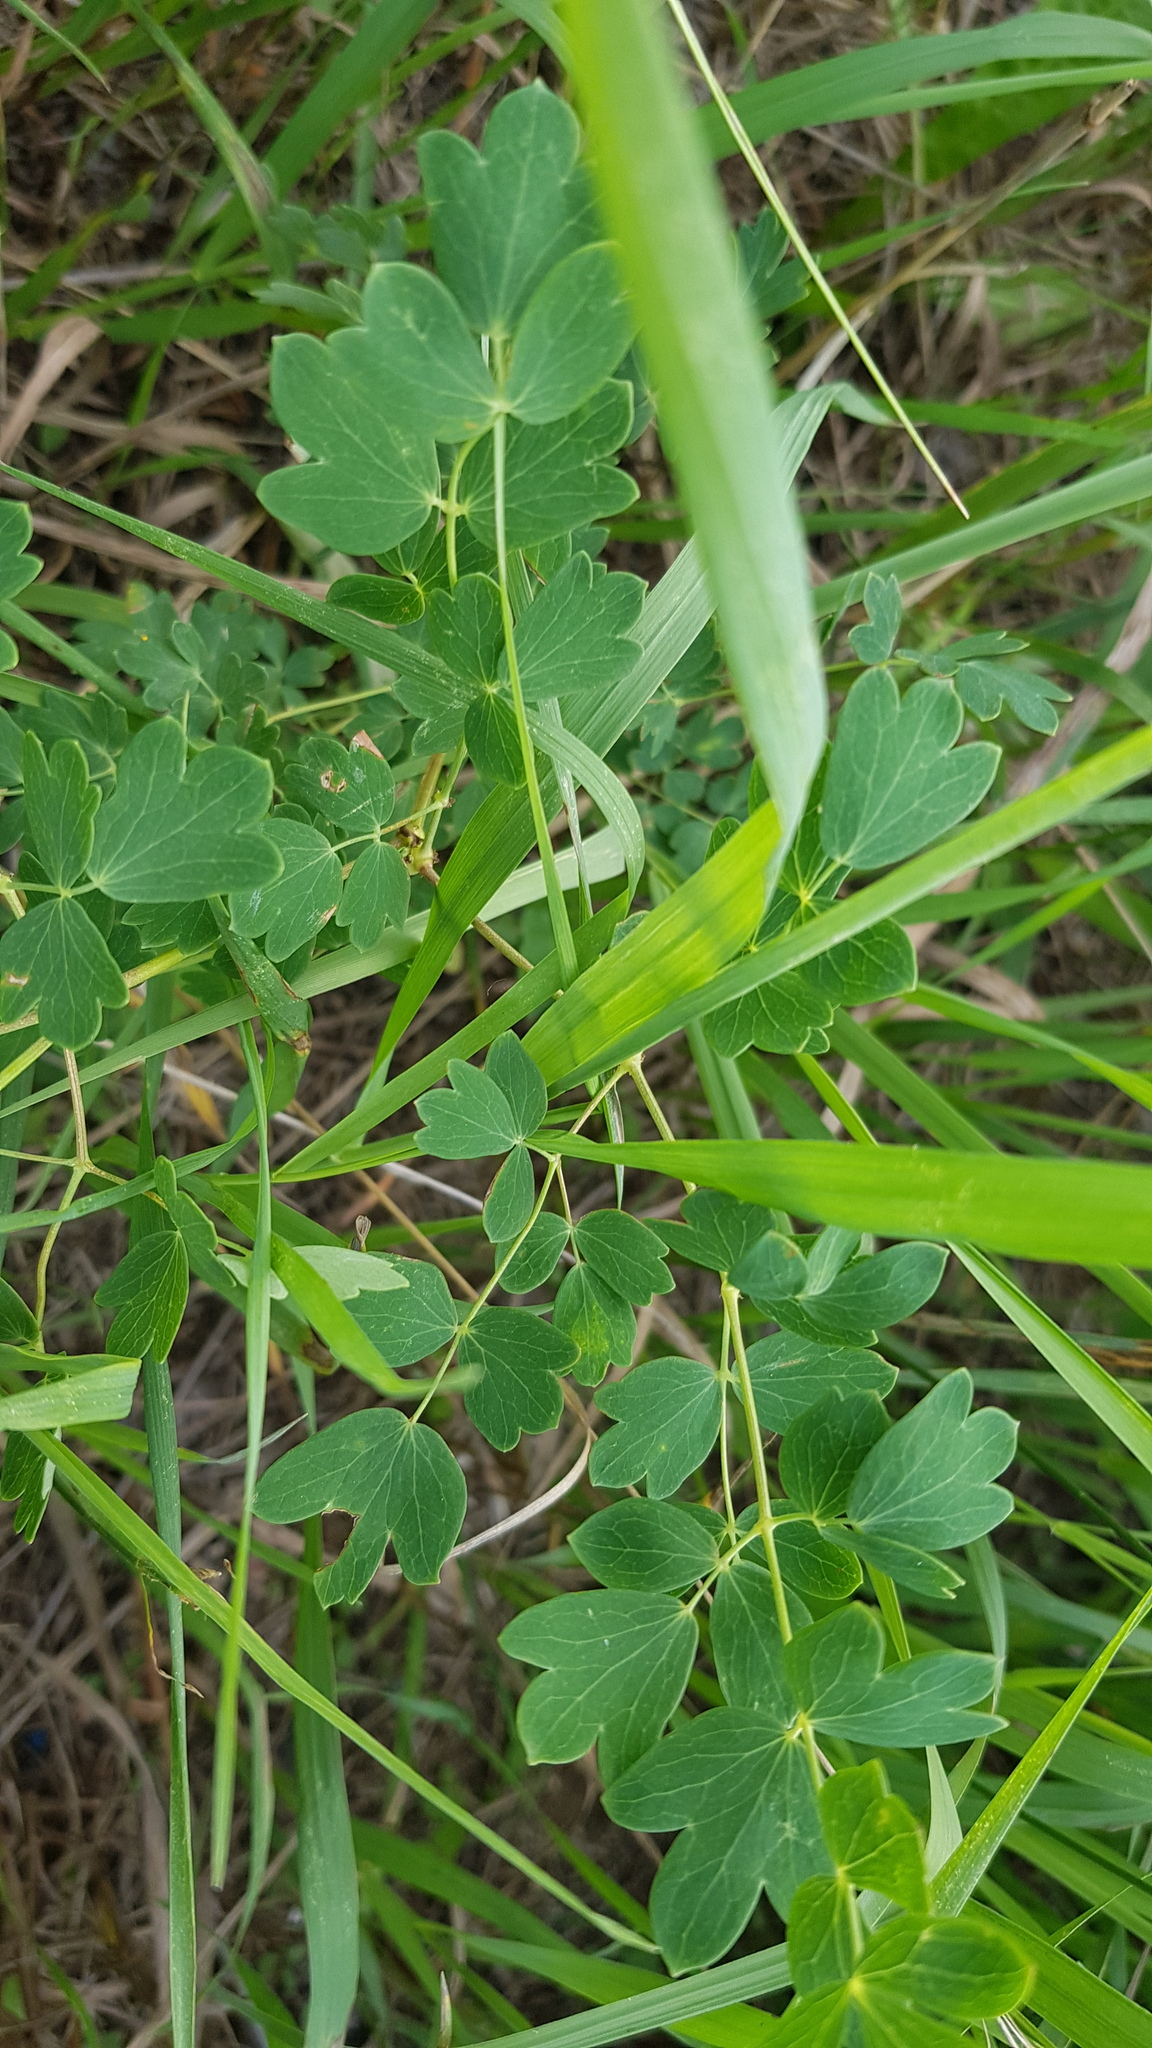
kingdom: Plantae
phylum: Tracheophyta
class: Magnoliopsida
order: Ranunculales
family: Ranunculaceae
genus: Thalictrum
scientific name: Thalictrum minus
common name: Lesser meadow-rue
